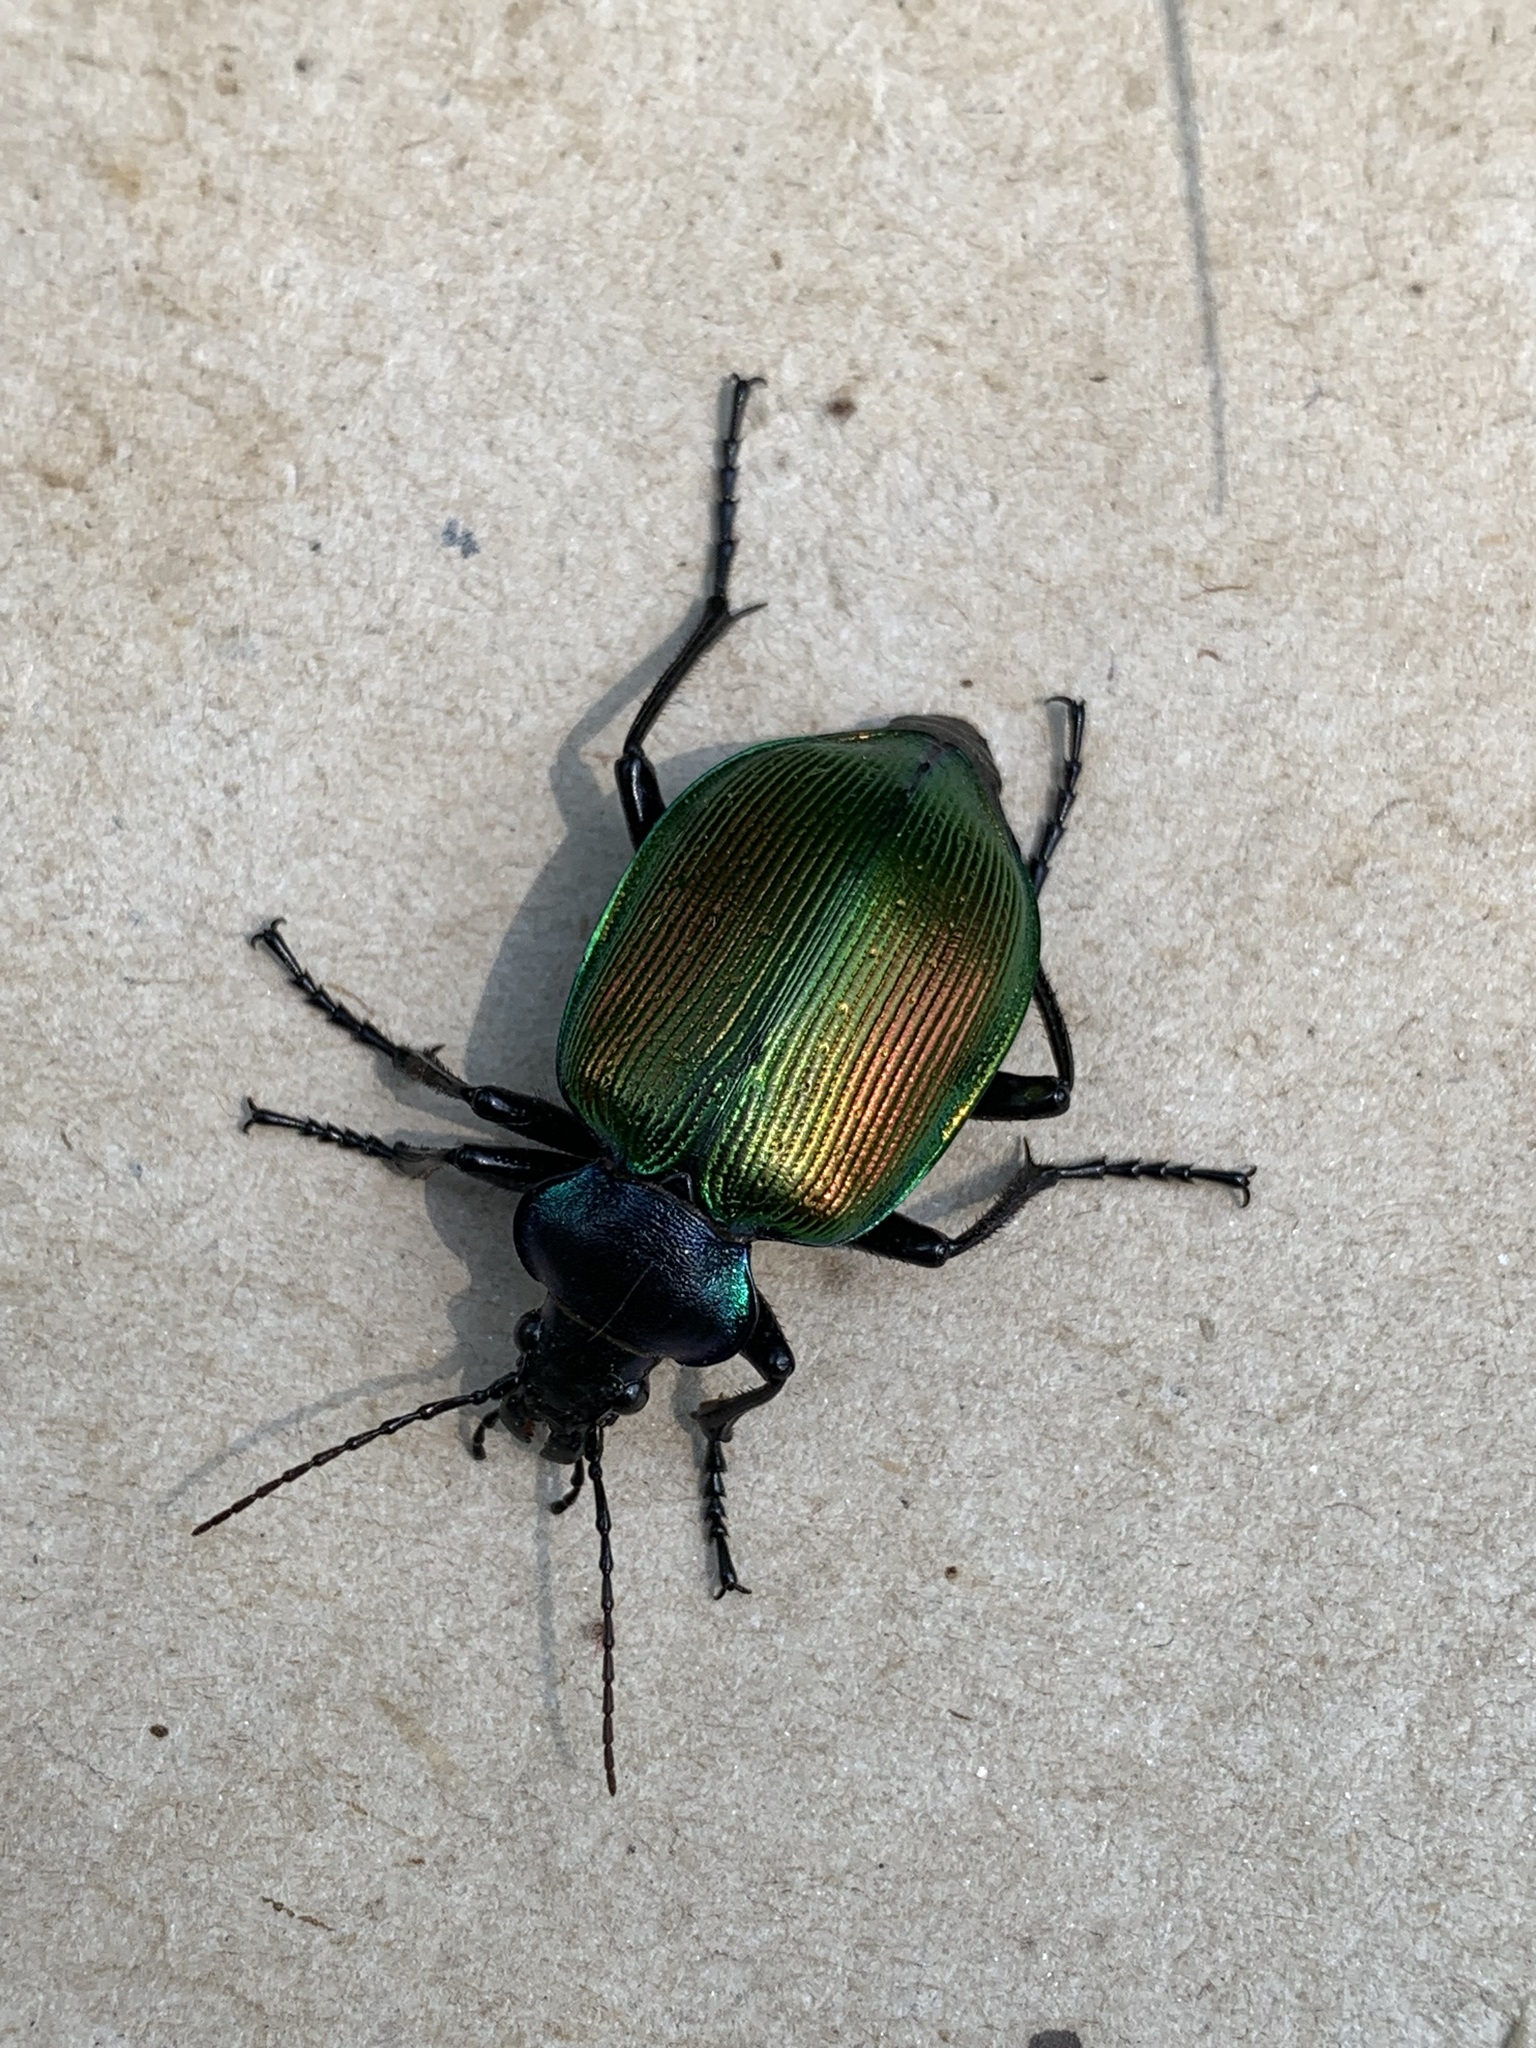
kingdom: Animalia
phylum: Arthropoda
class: Insecta
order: Coleoptera
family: Carabidae
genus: Calosoma
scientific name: Calosoma sycophanta
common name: Forest caterpillar hunter
